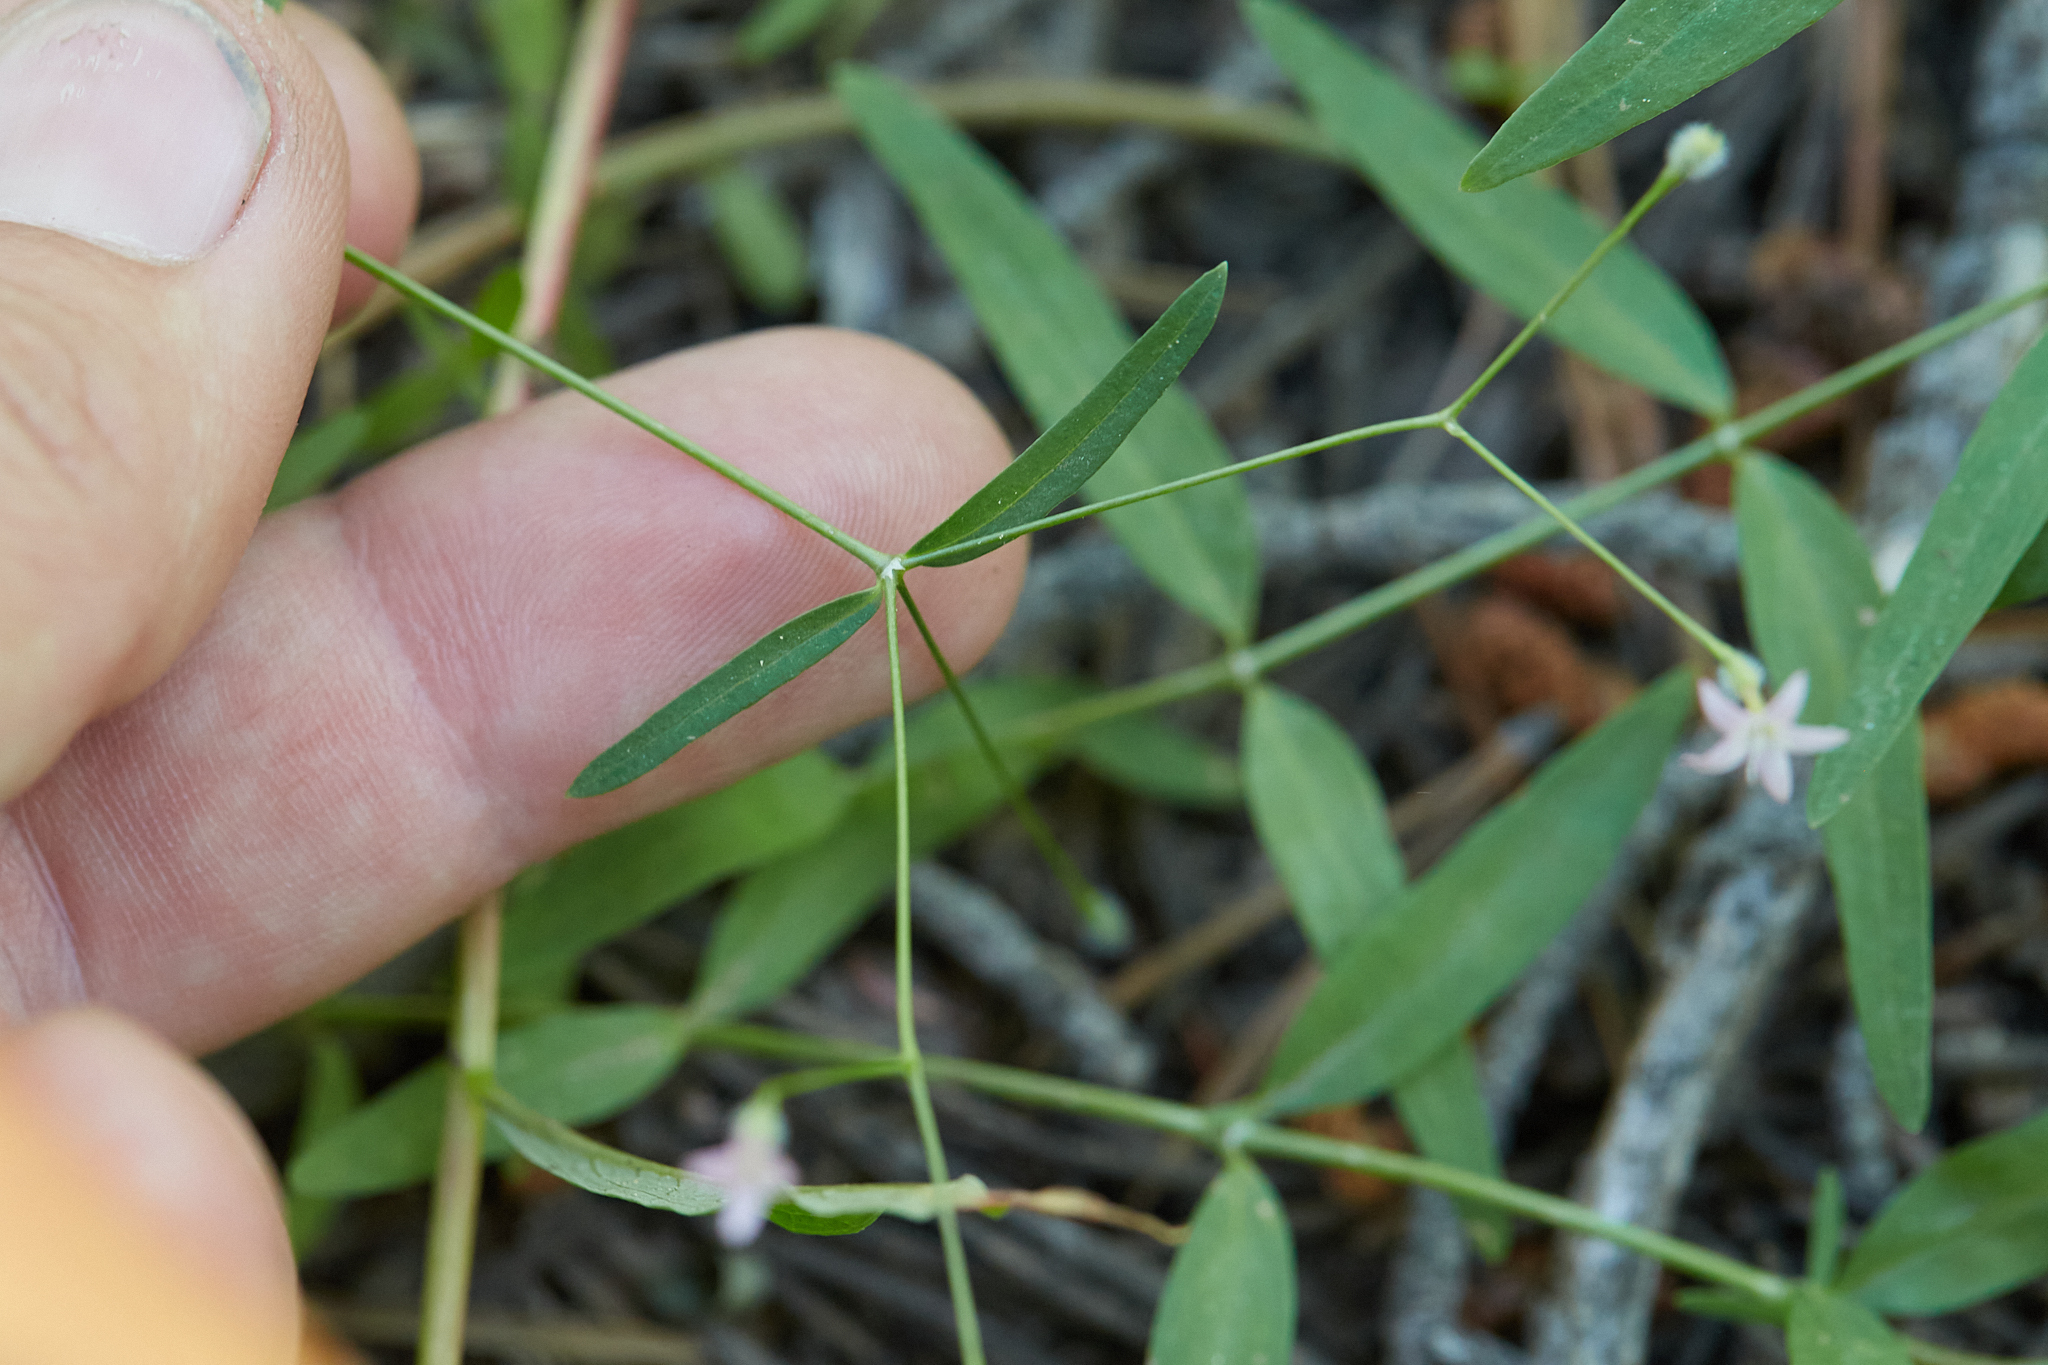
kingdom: Plantae
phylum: Tracheophyta
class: Magnoliopsida
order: Gentianales
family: Rubiaceae
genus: Kelloggia
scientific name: Kelloggia galioides
